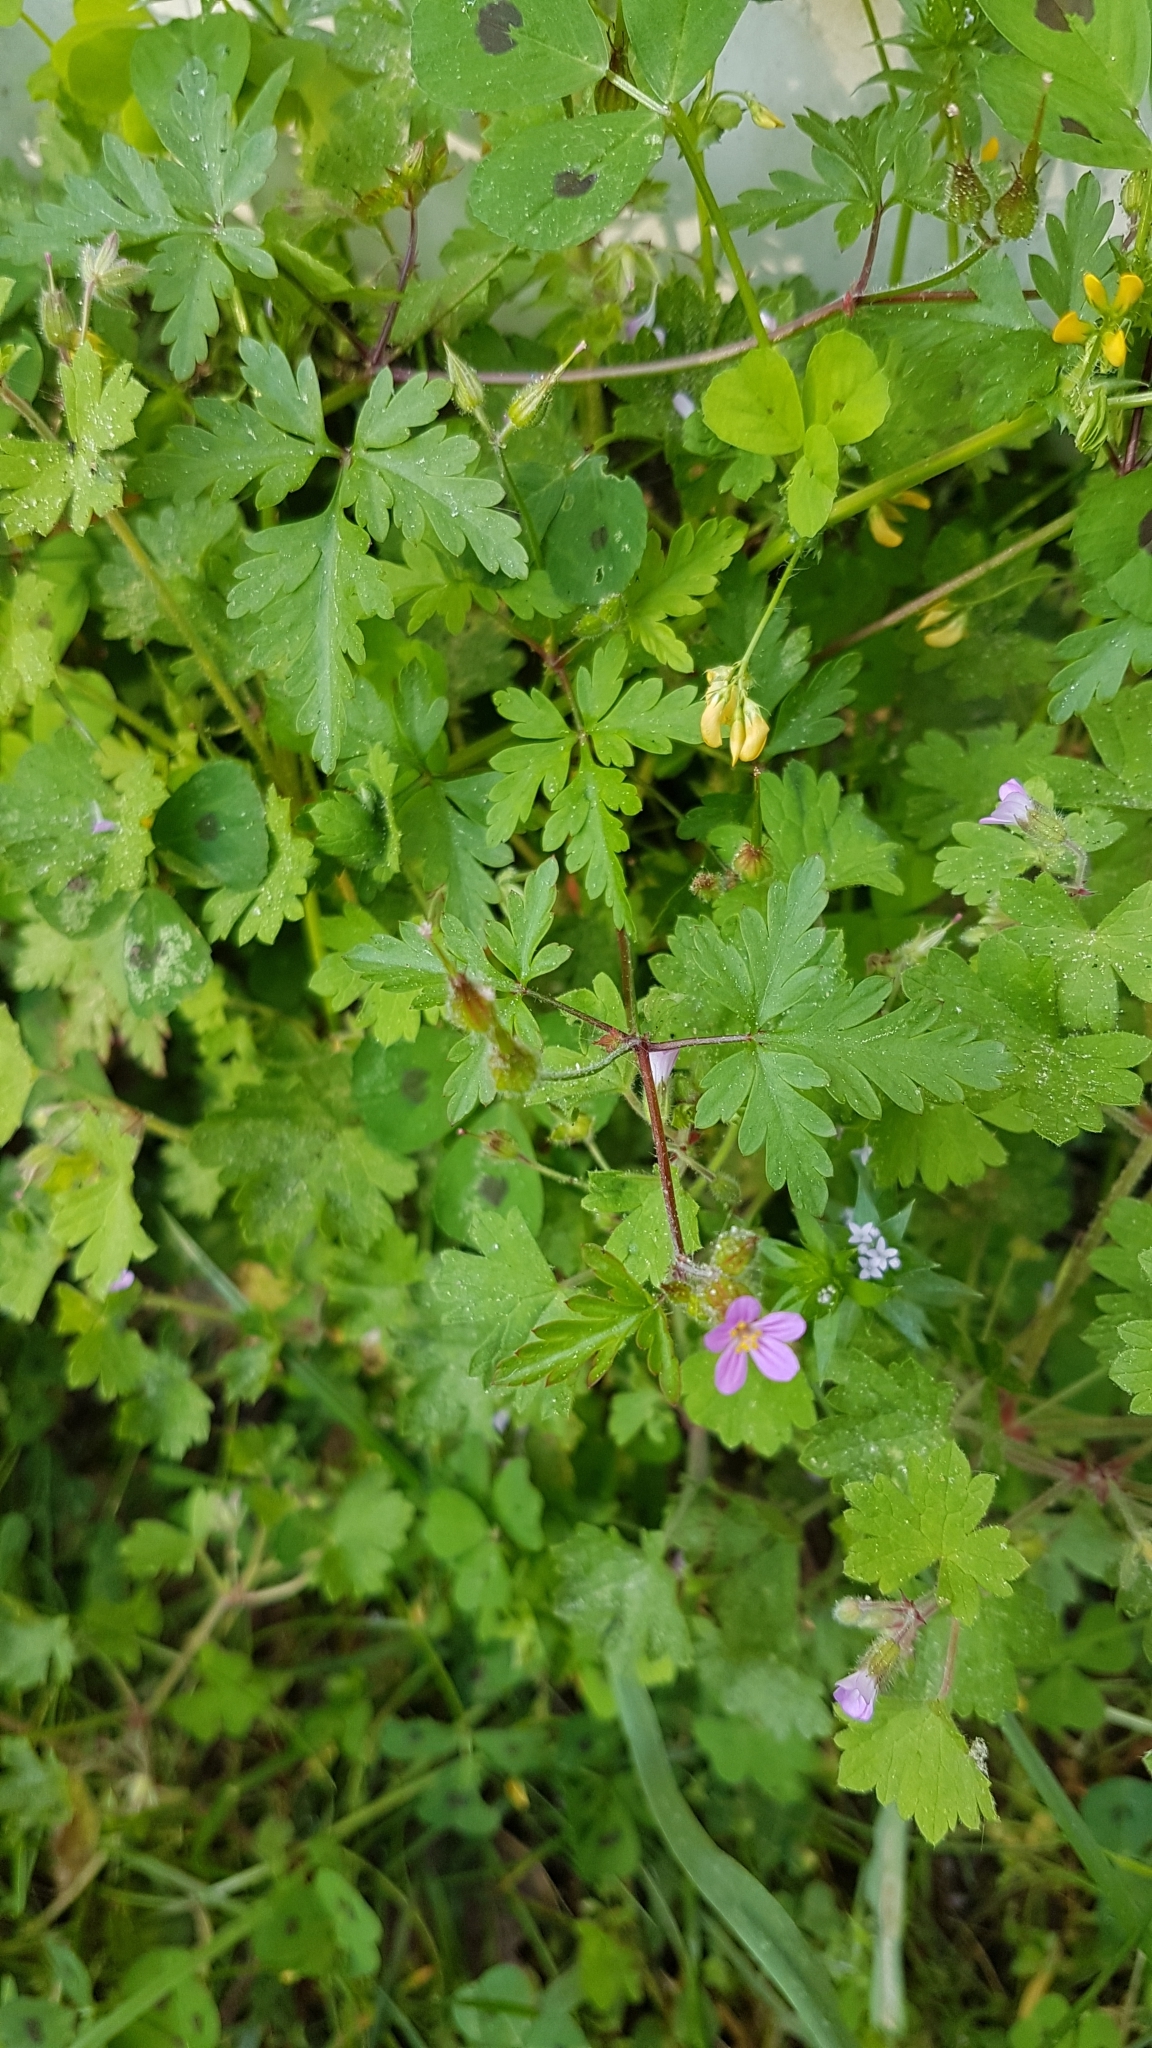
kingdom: Plantae
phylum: Tracheophyta
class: Magnoliopsida
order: Geraniales
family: Geraniaceae
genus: Geranium
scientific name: Geranium robertianum
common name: Herb-robert
